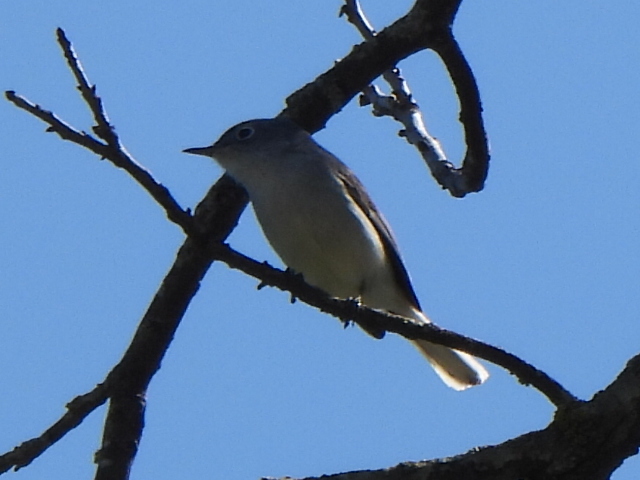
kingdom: Animalia
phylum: Chordata
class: Aves
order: Passeriformes
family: Polioptilidae
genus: Polioptila
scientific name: Polioptila caerulea
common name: Blue-gray gnatcatcher
